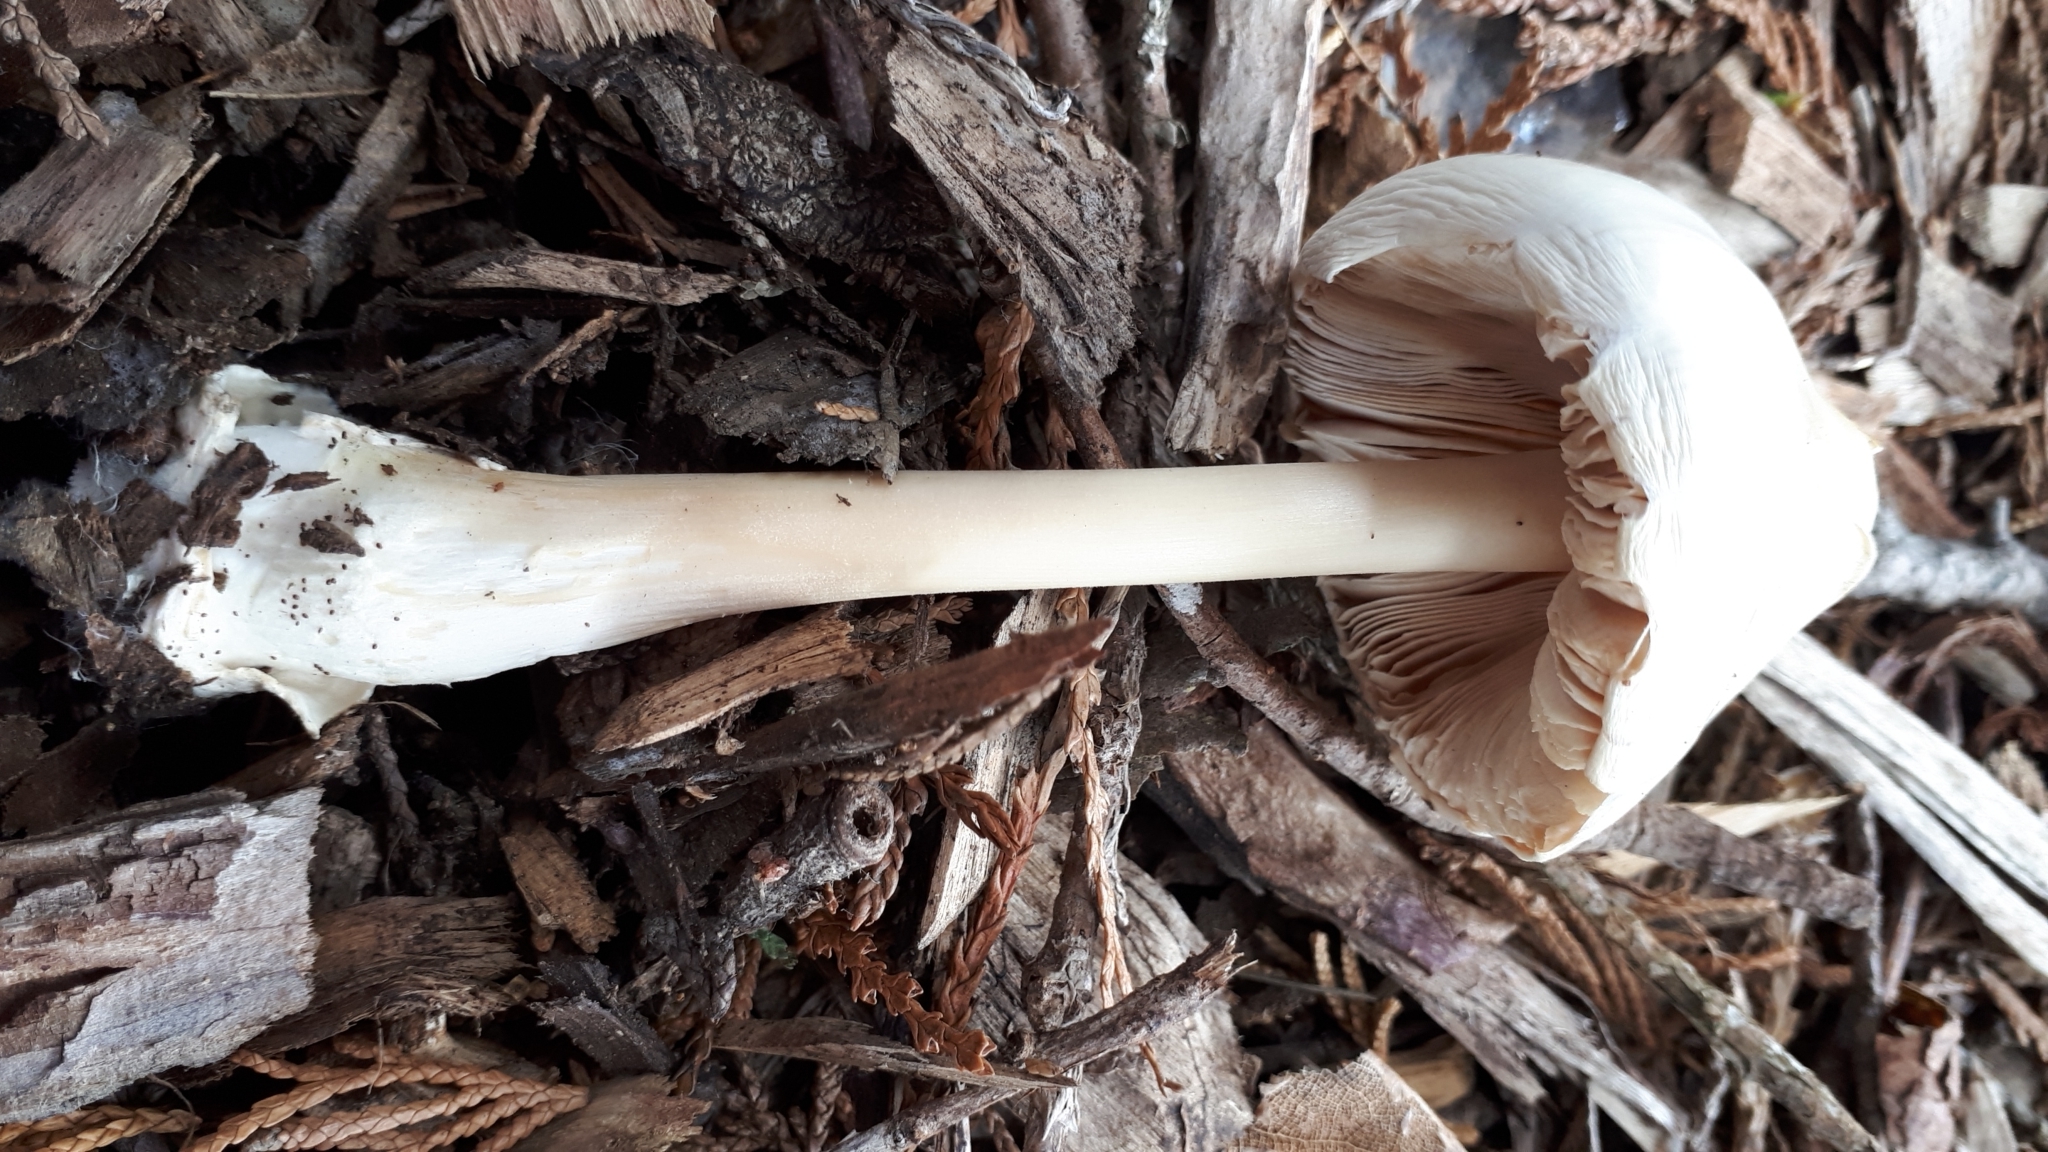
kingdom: Fungi
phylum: Basidiomycota
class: Agaricomycetes
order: Agaricales
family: Pluteaceae
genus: Volvopluteus
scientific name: Volvopluteus gloiocephalus
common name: Stubble rosegill
